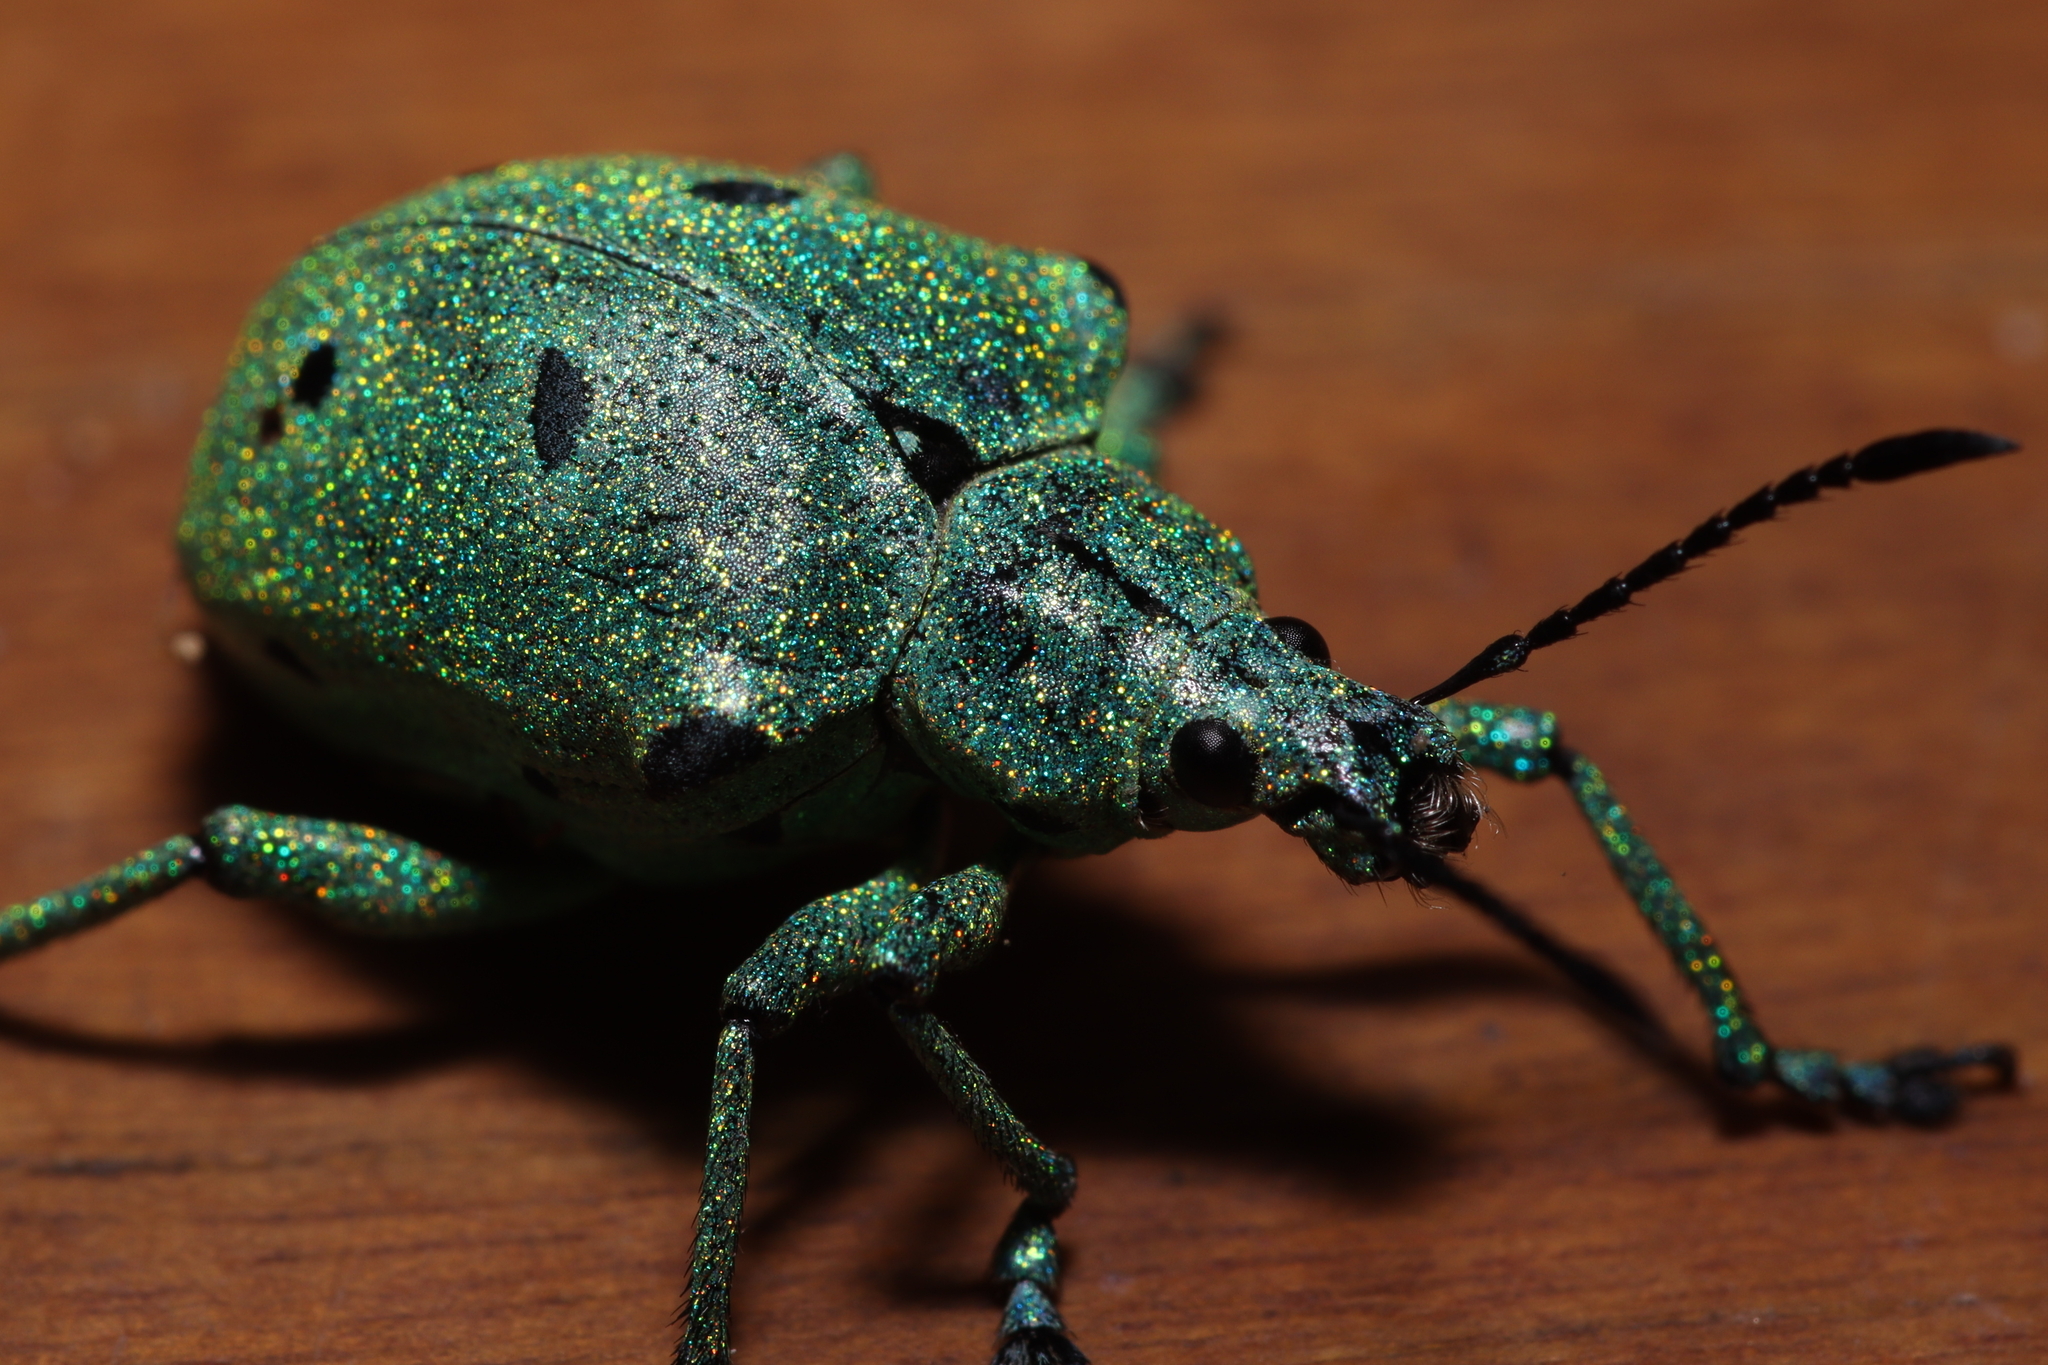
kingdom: Animalia
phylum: Arthropoda
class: Insecta
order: Coleoptera
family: Curculionidae
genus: Polyteles
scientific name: Polyteles stevenii
